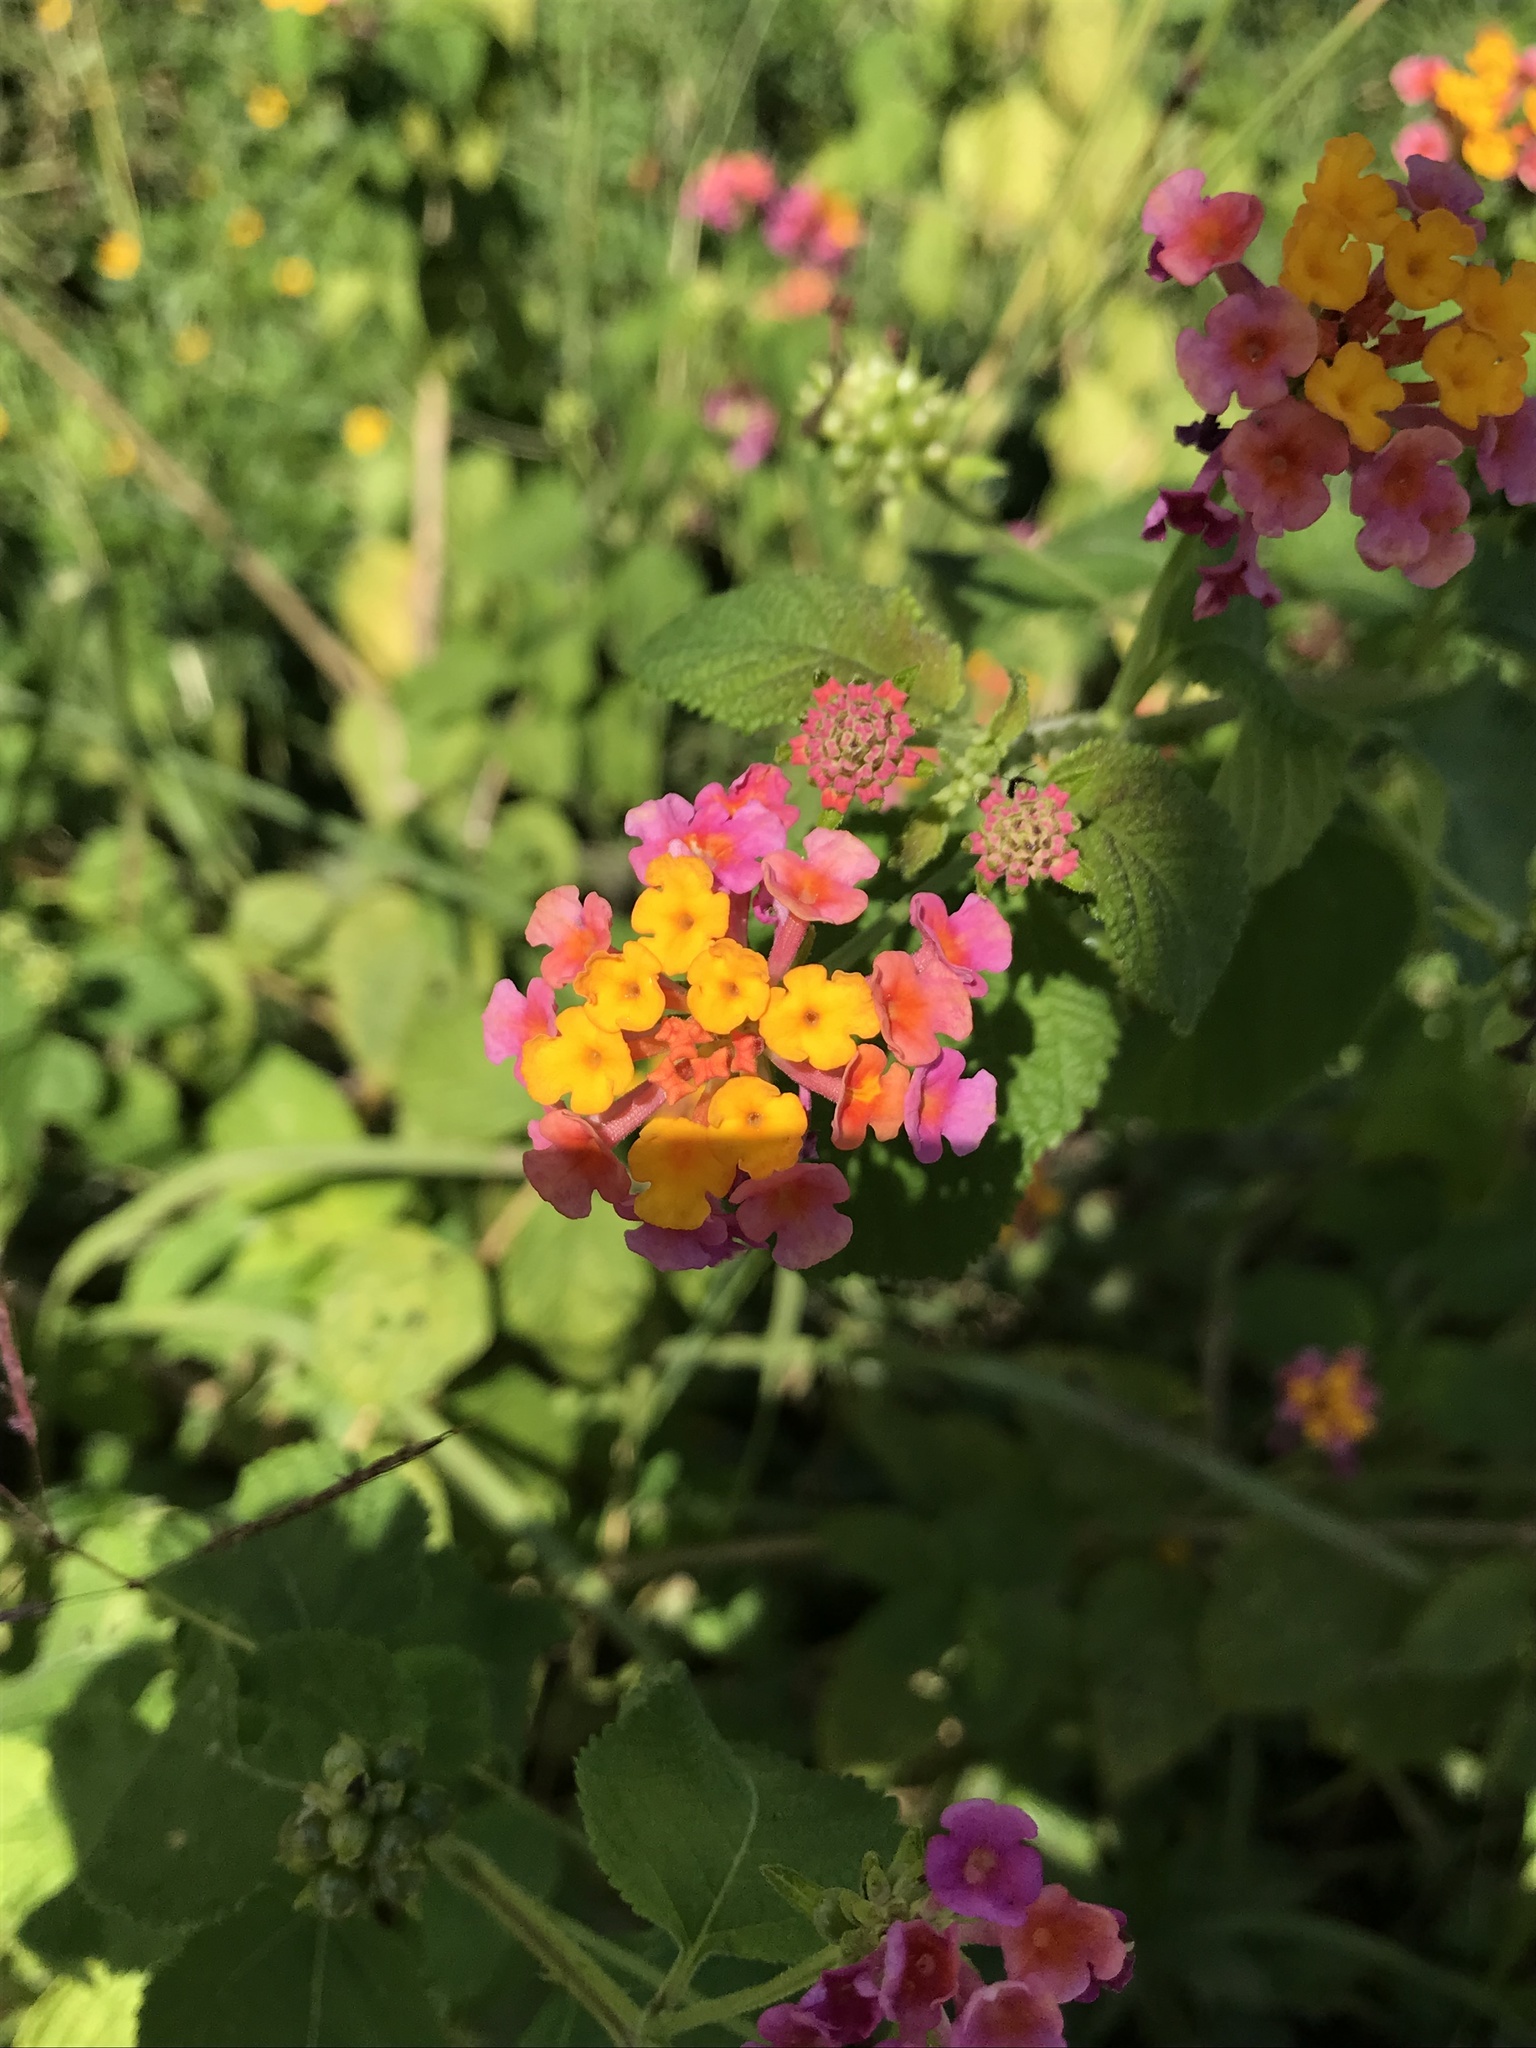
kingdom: Plantae
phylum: Tracheophyta
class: Magnoliopsida
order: Lamiales
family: Verbenaceae
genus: Lantana
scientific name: Lantana camara
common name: Lantana
